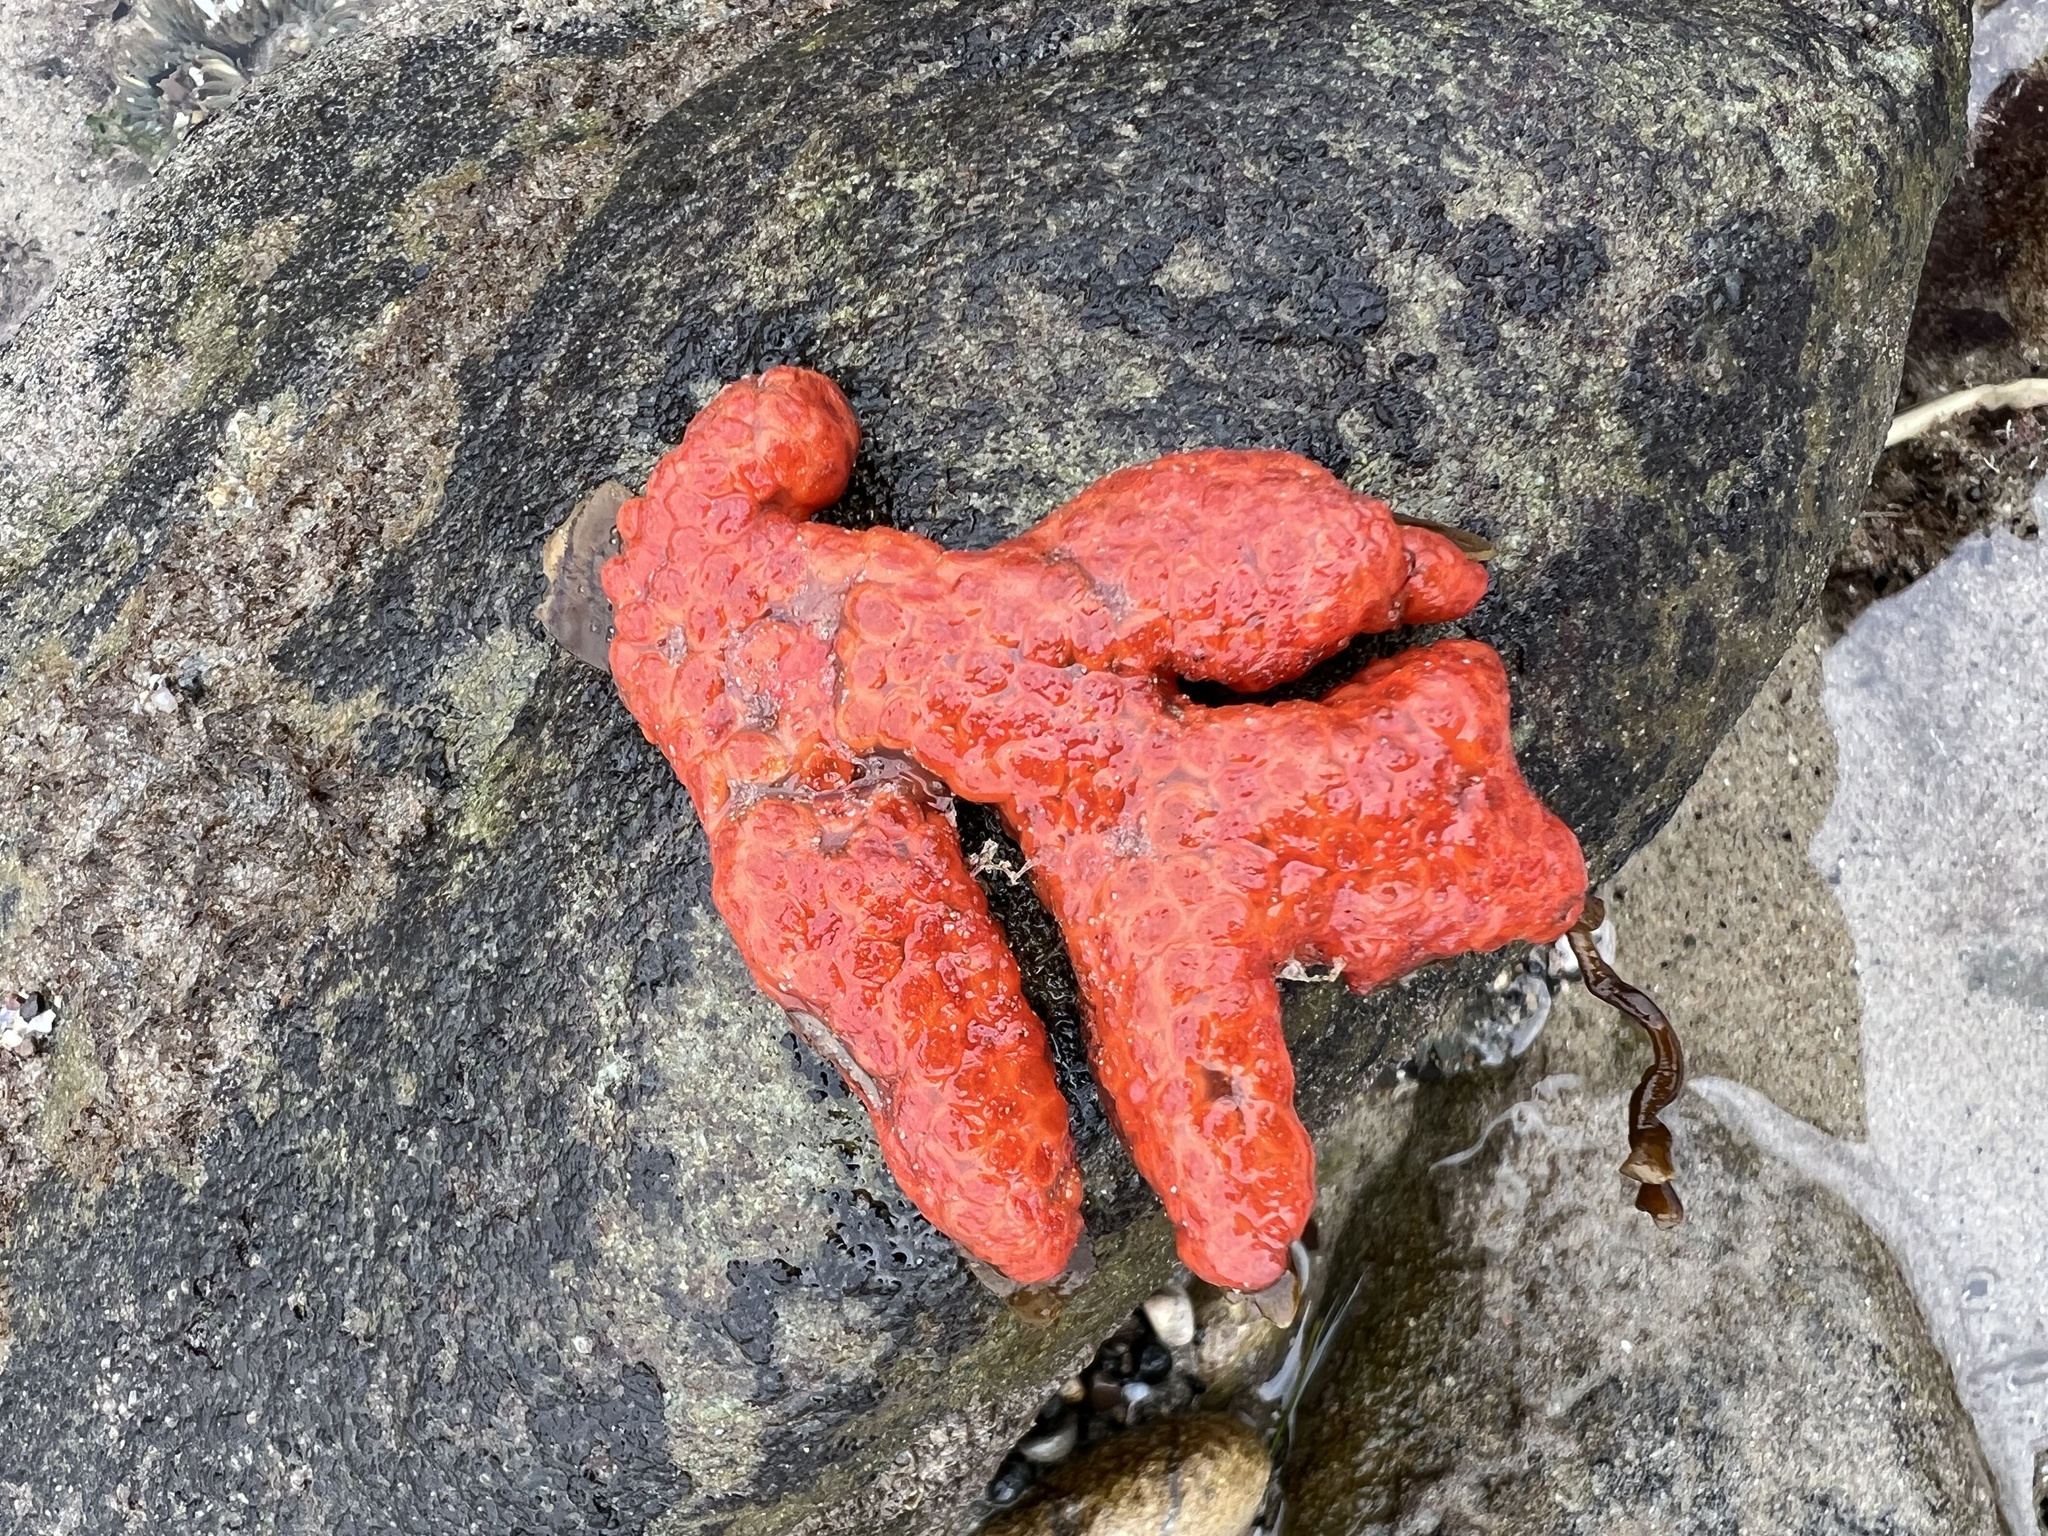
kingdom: Animalia
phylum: Chordata
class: Ascidiacea
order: Stolidobranchia
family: Styelidae
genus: Metandrocarpa
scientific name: Metandrocarpa dura
